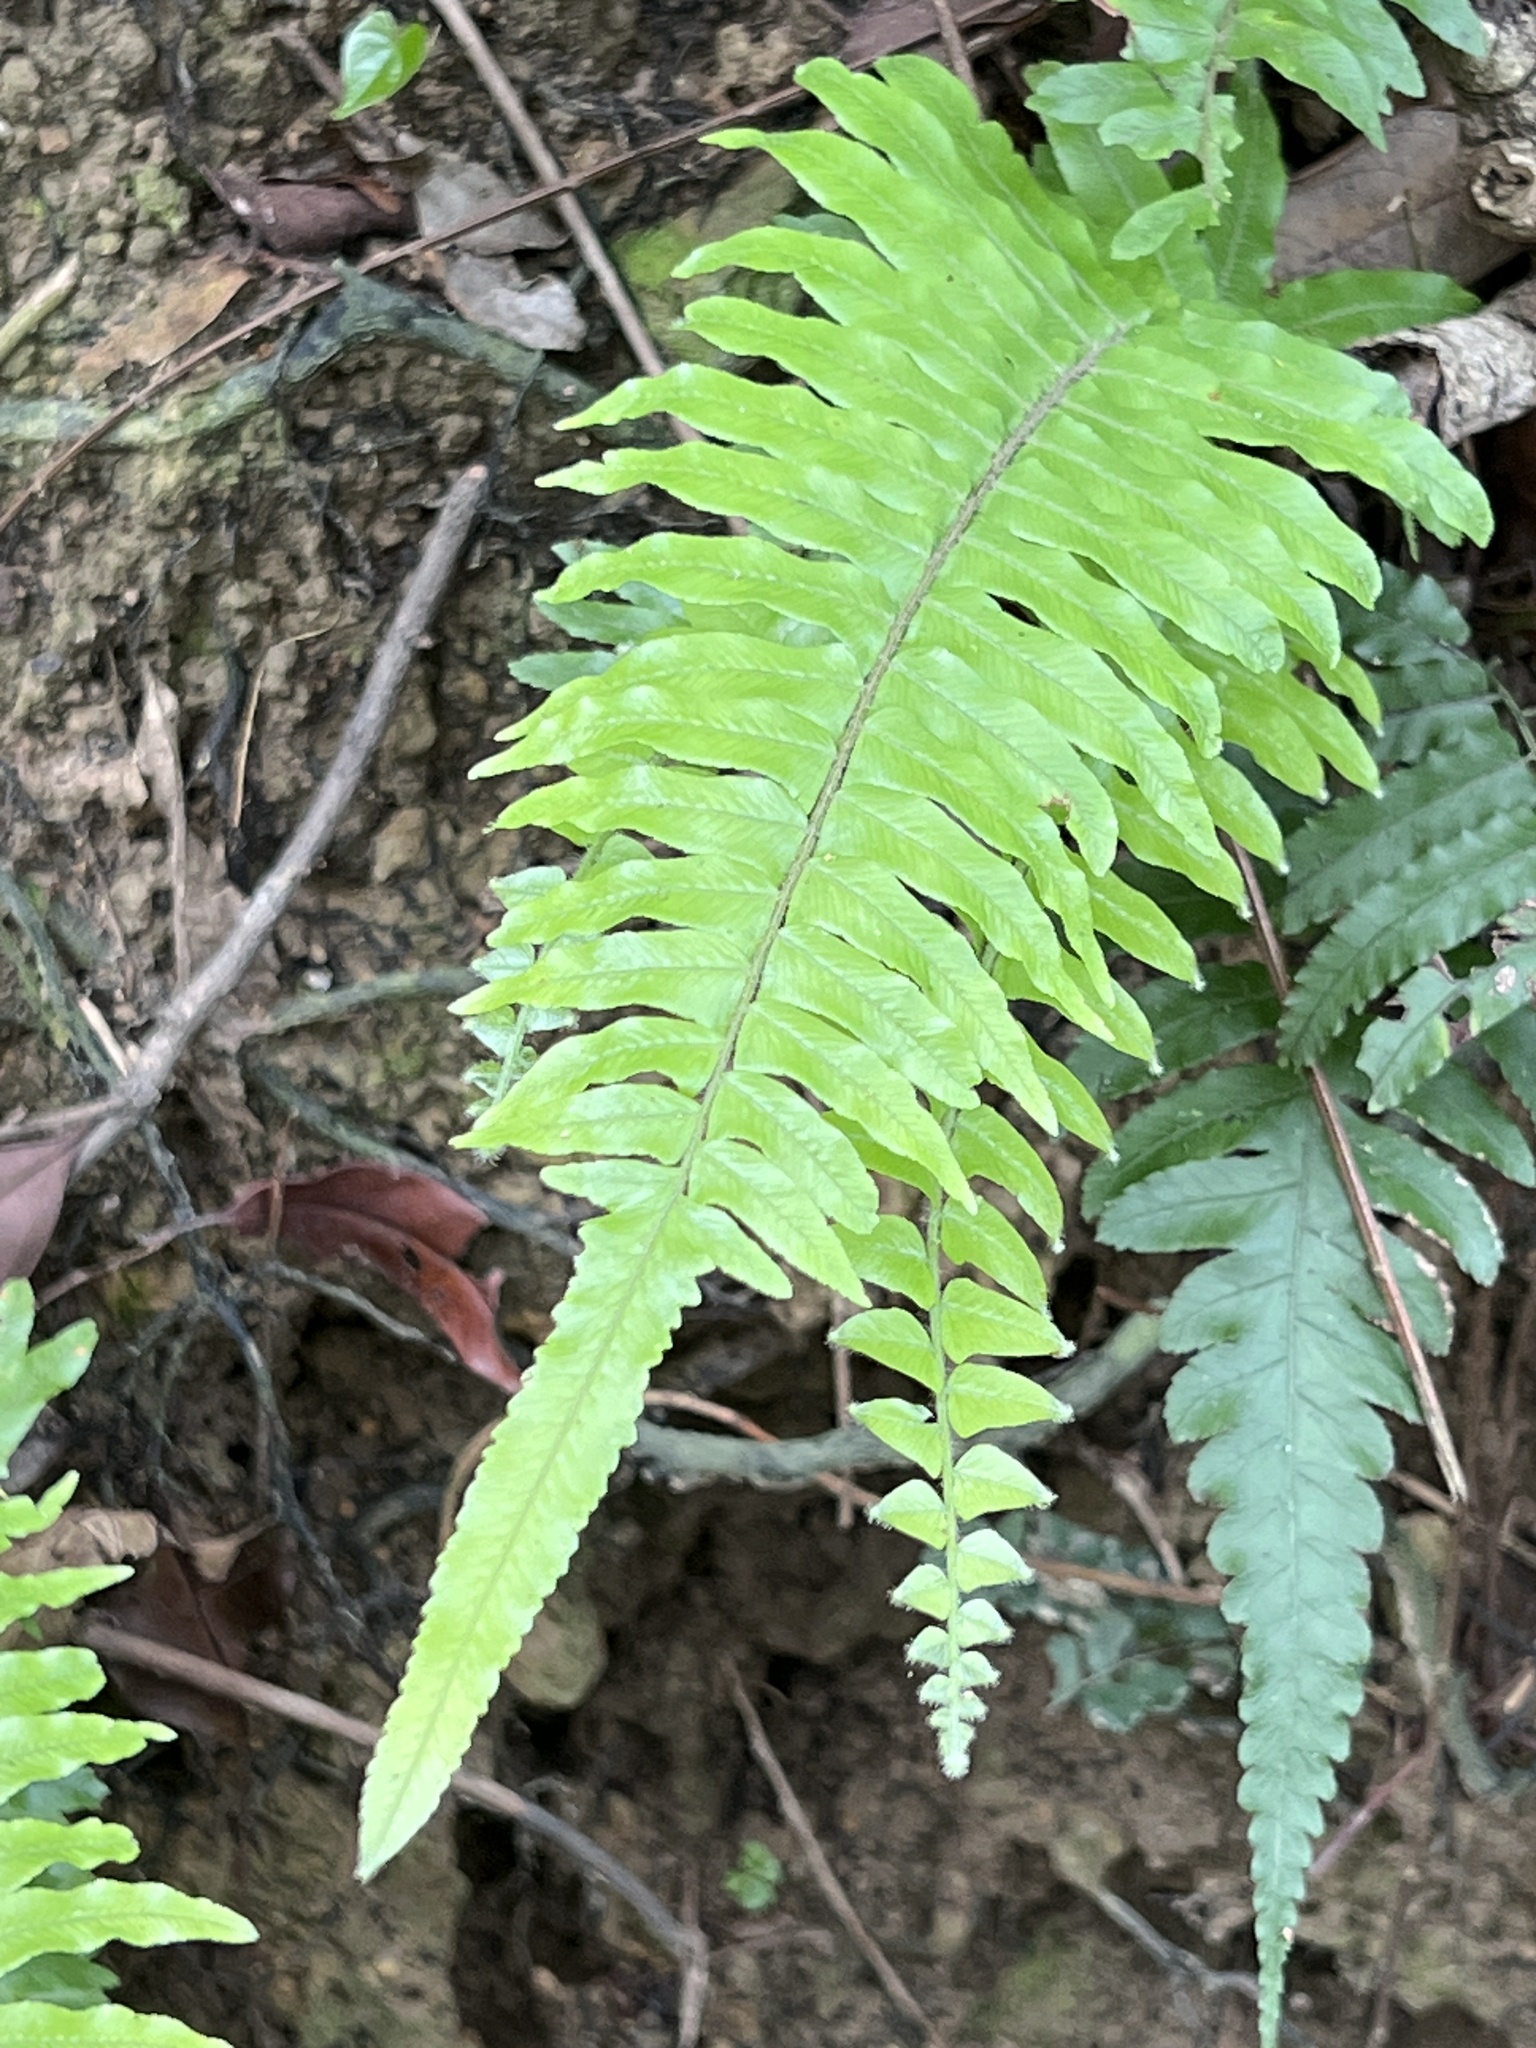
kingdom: Plantae
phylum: Tracheophyta
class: Polypodiopsida
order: Polypodiales
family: Dennstaedtiaceae
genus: Microlepia
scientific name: Microlepia hookeriana
